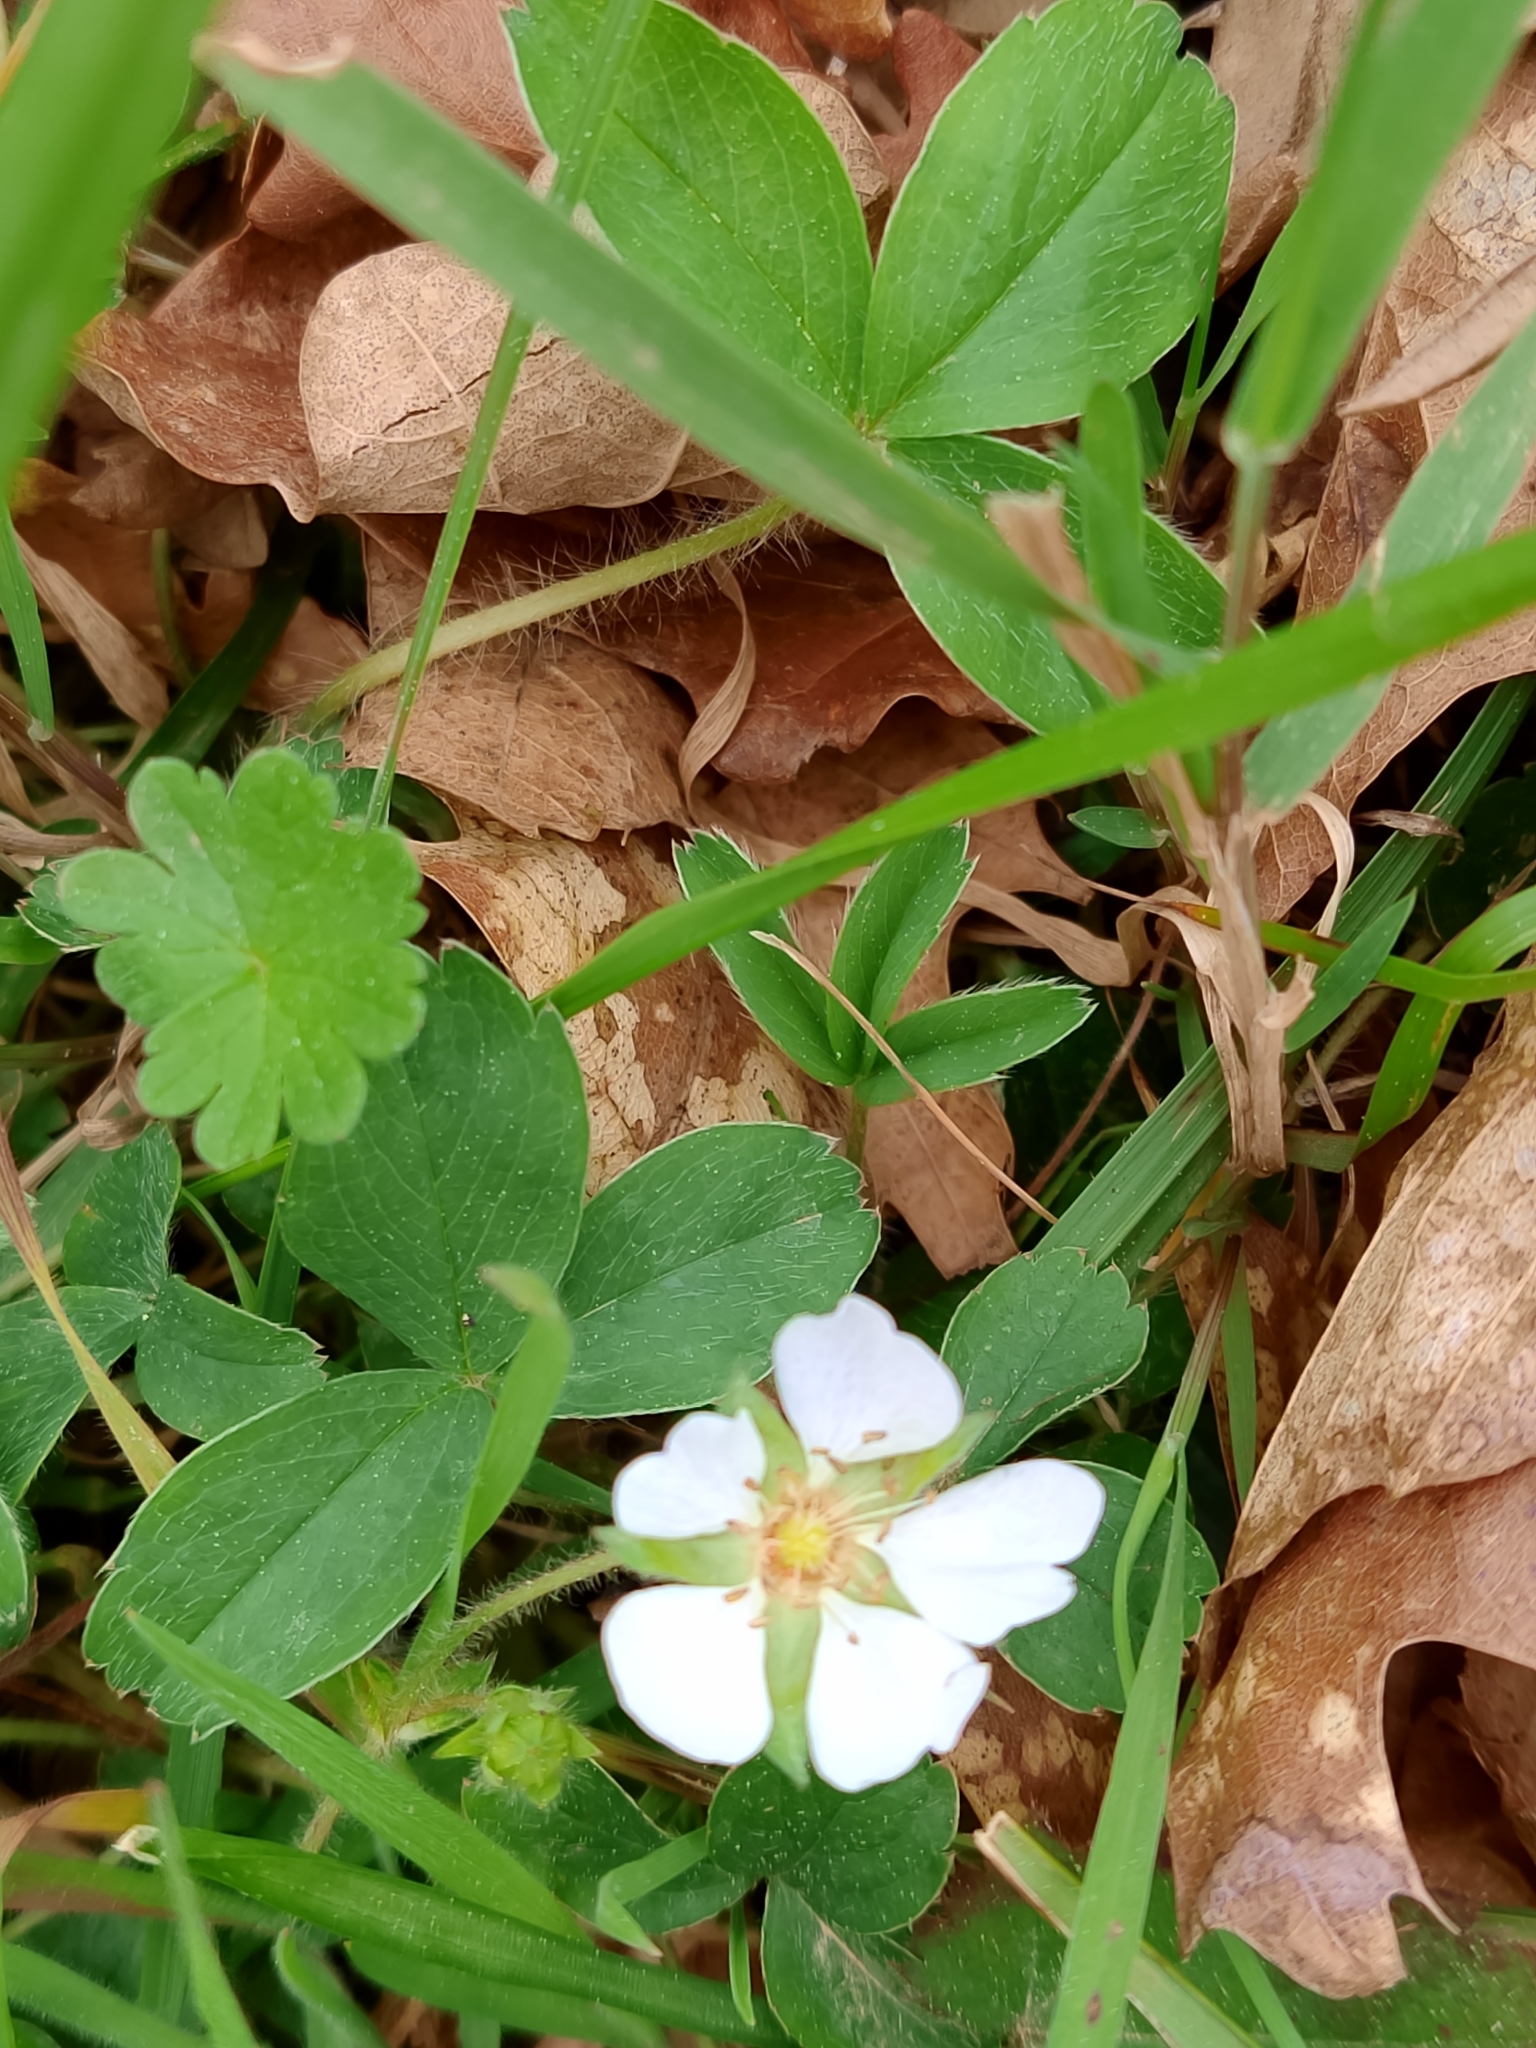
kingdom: Plantae
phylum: Tracheophyta
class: Magnoliopsida
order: Rosales
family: Rosaceae
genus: Potentilla
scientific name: Potentilla montana
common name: Mountain cinquefoil
